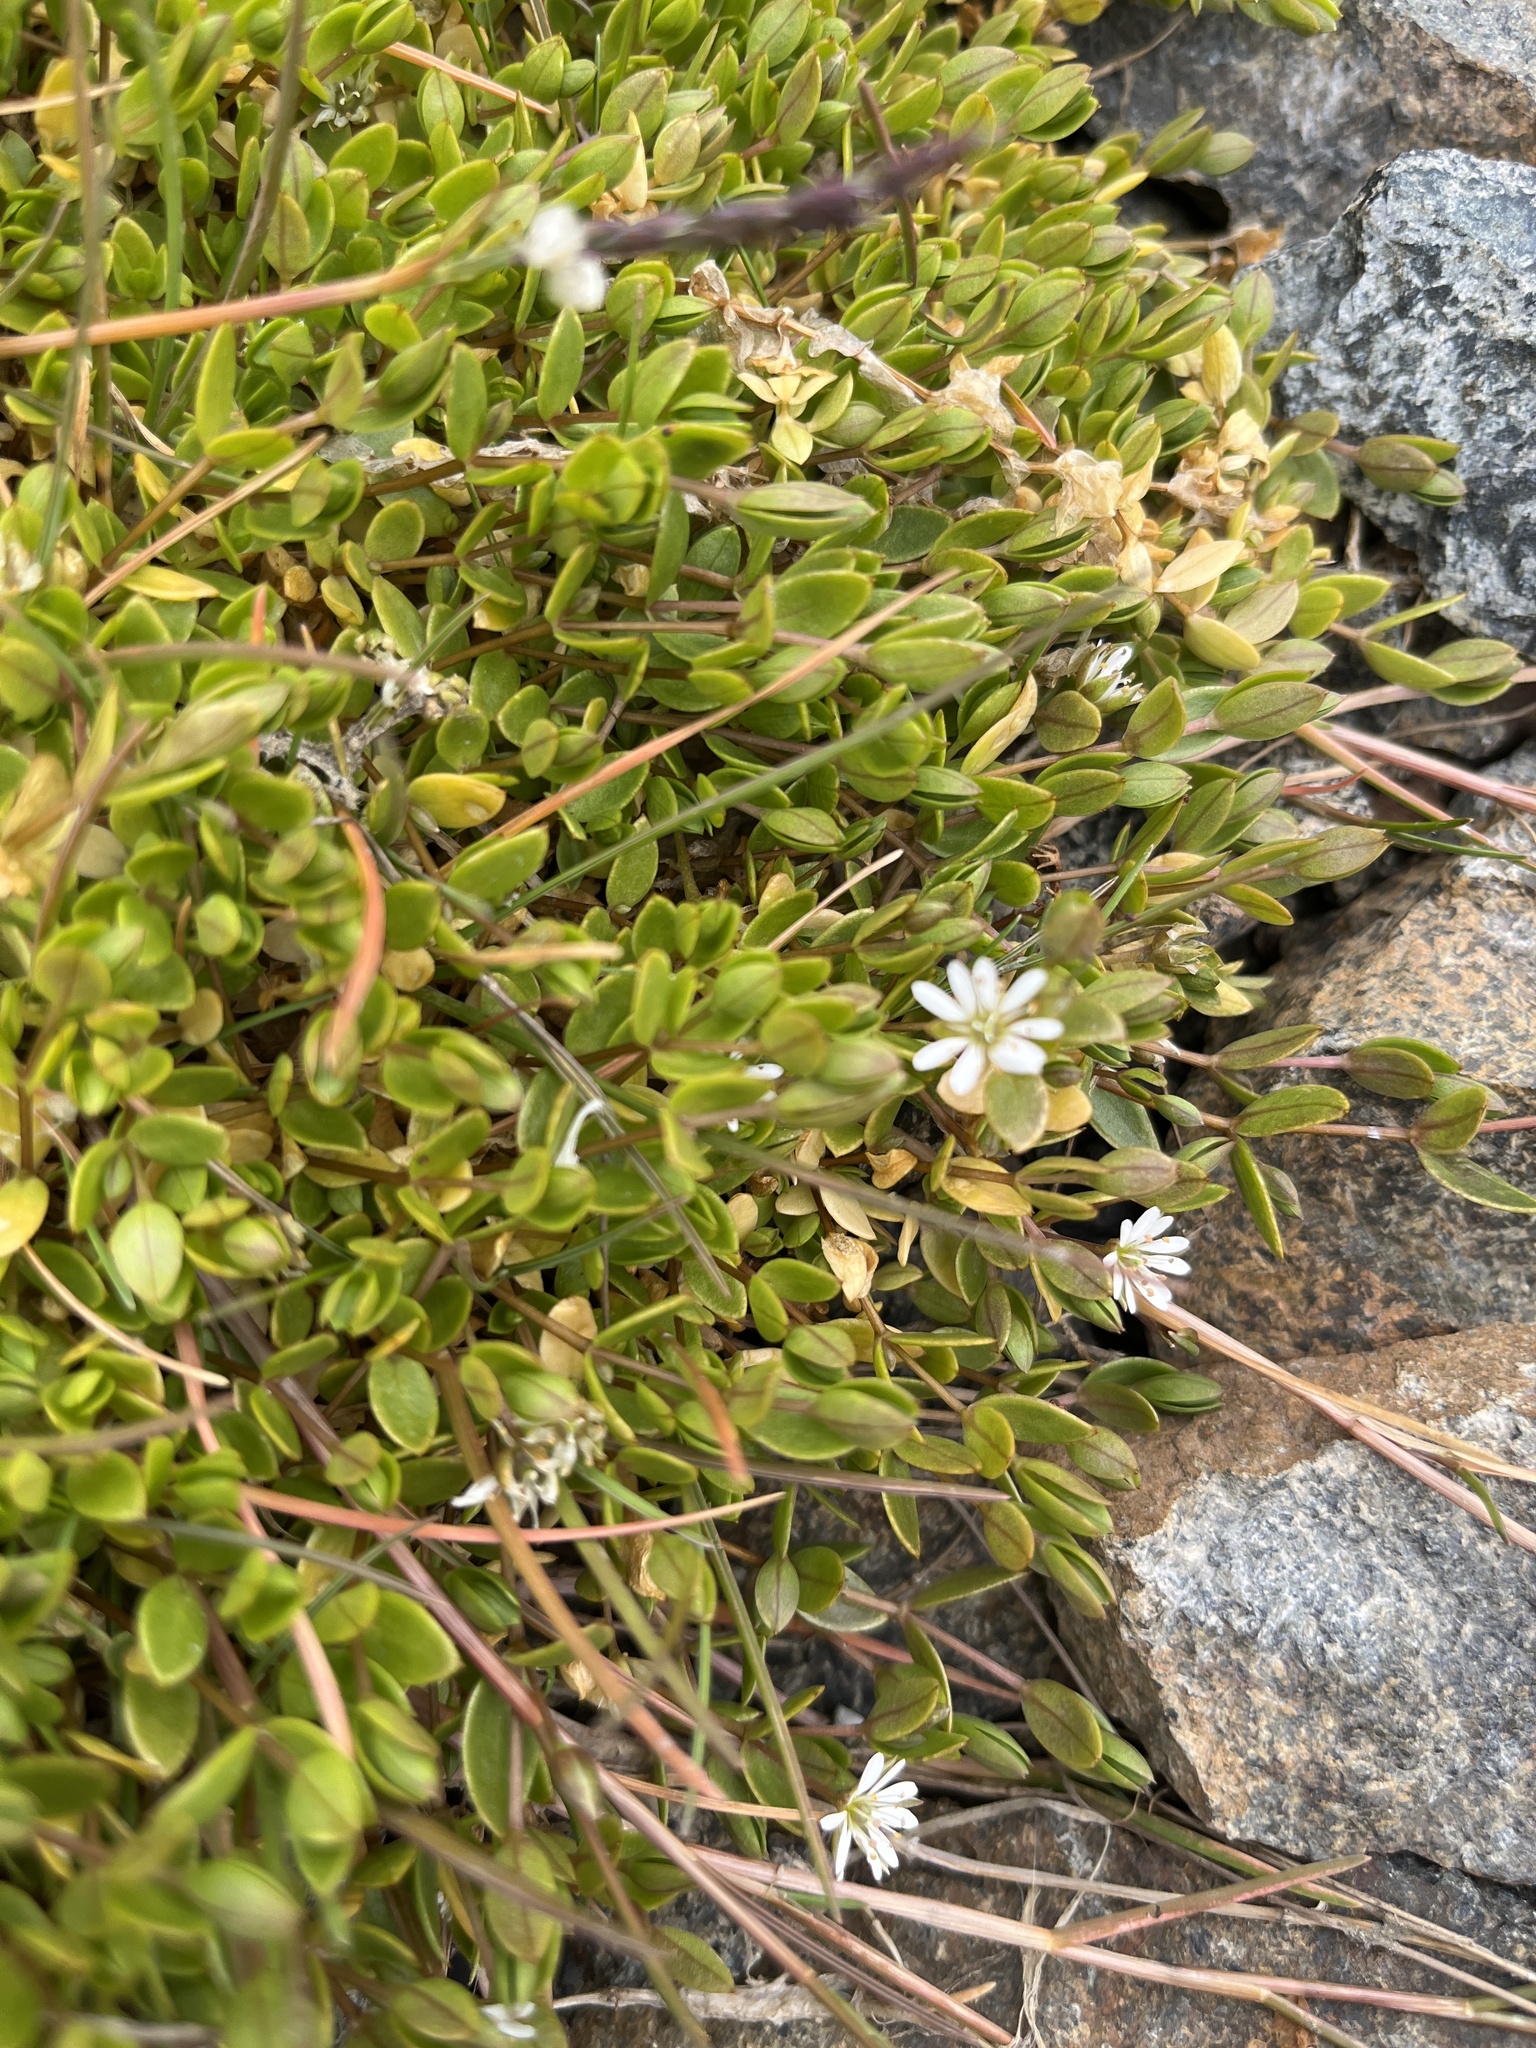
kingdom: Plantae
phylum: Tracheophyta
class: Magnoliopsida
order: Caryophyllales
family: Caryophyllaceae
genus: Stellaria
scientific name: Stellaria humifusa
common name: Creeping starwort
